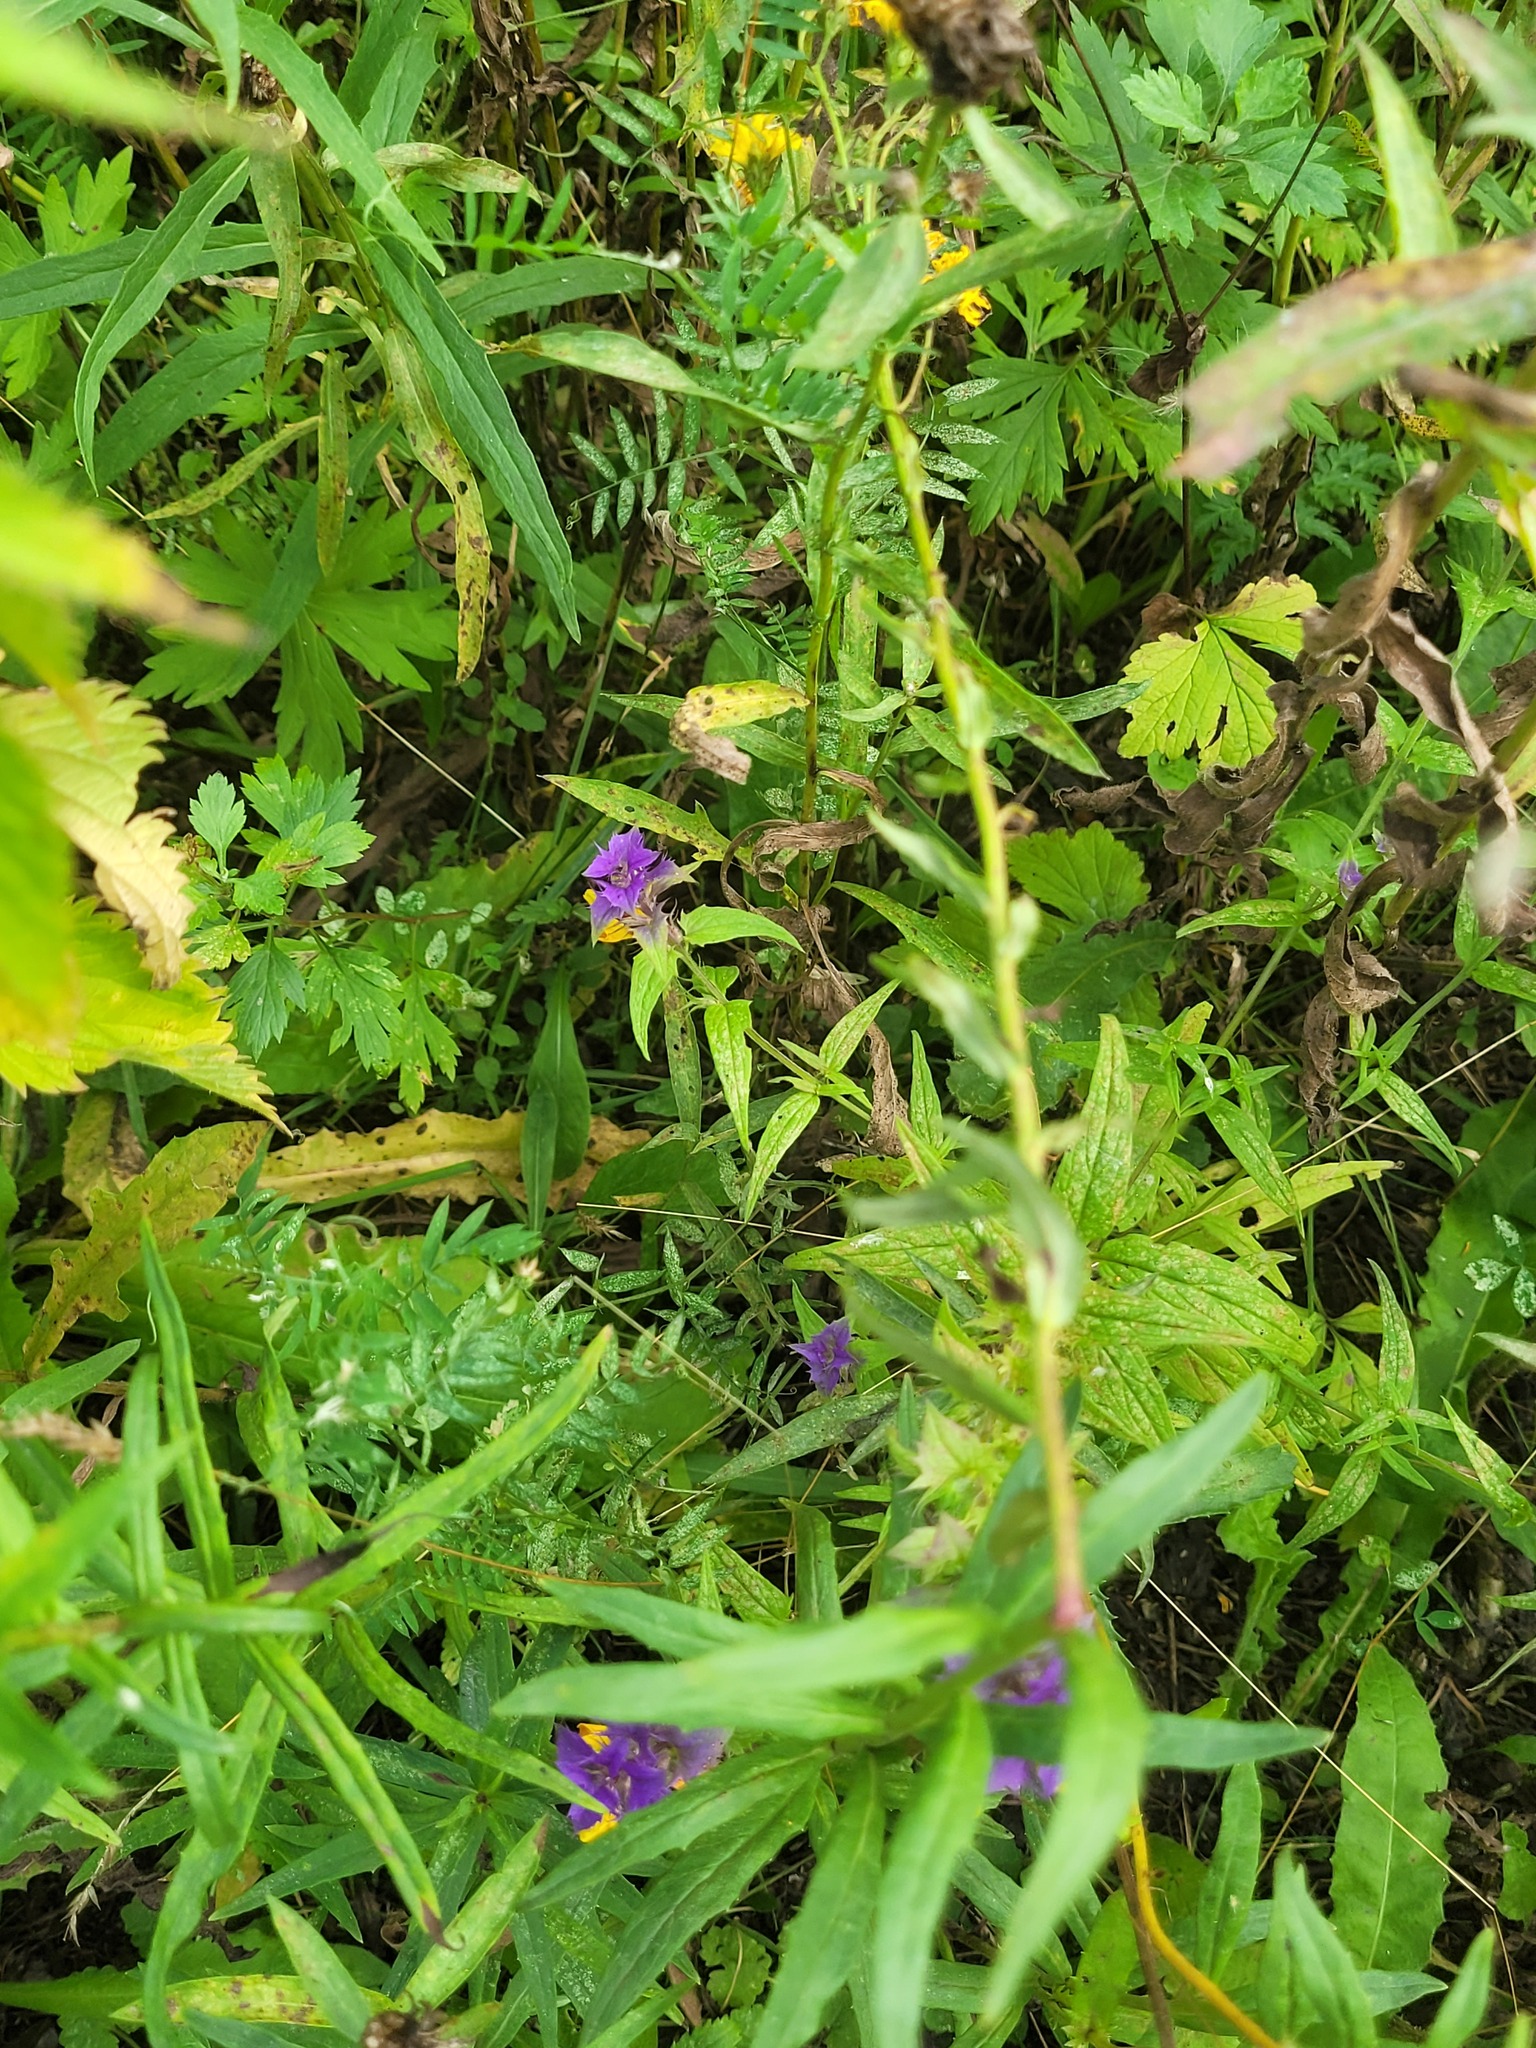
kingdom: Plantae
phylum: Tracheophyta
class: Magnoliopsida
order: Lamiales
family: Orobanchaceae
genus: Melampyrum
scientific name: Melampyrum nemorosum
